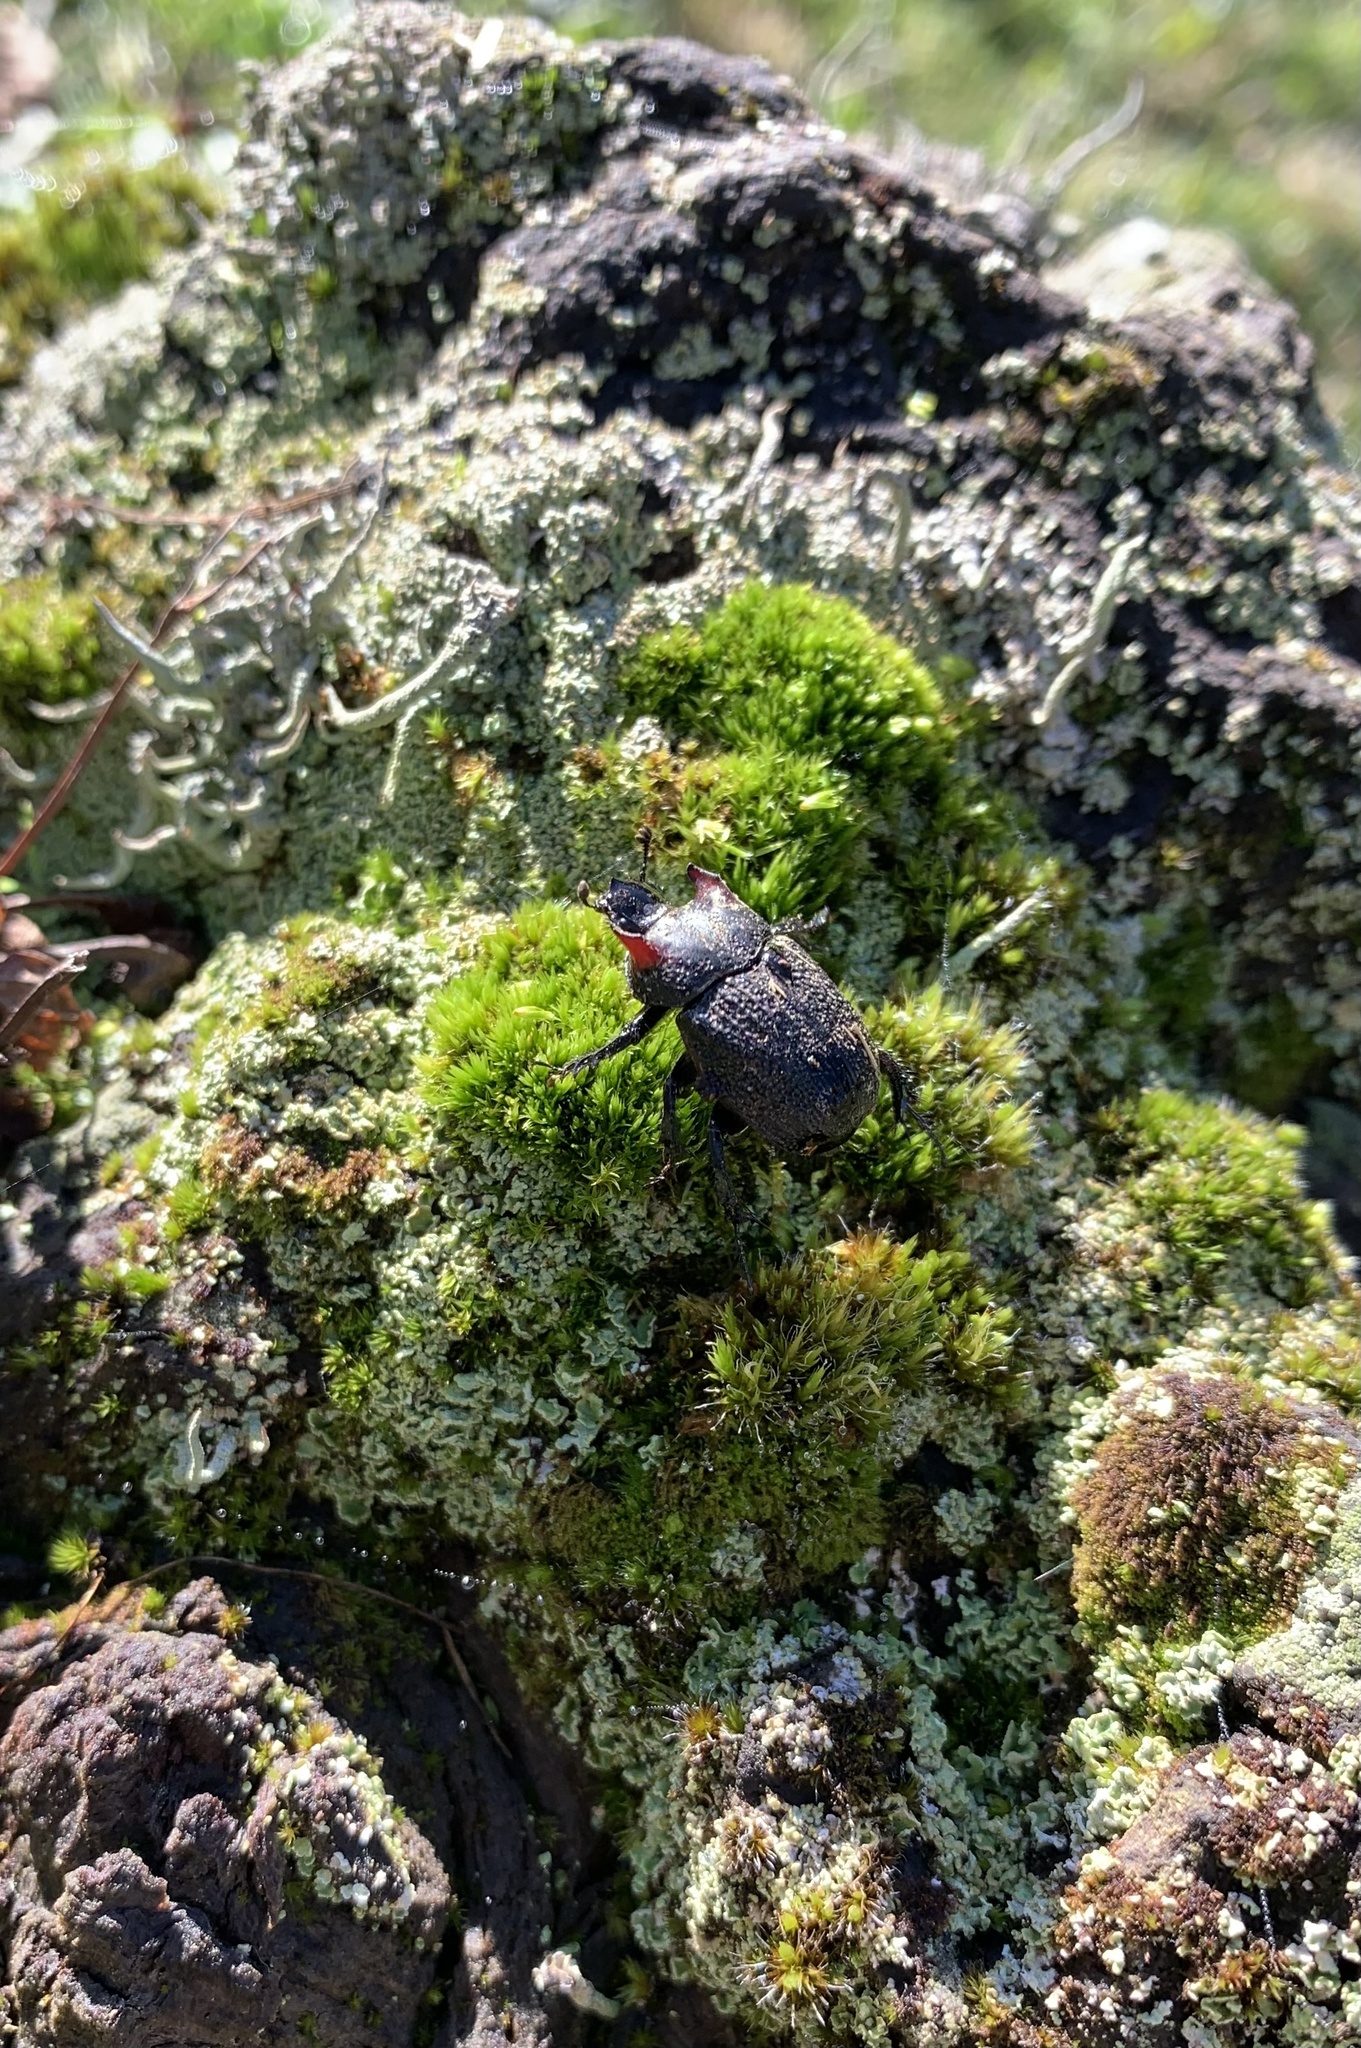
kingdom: Animalia
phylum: Arthropoda
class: Insecta
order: Coleoptera
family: Geotrupidae
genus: Frickius
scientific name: Frickius variolosus
